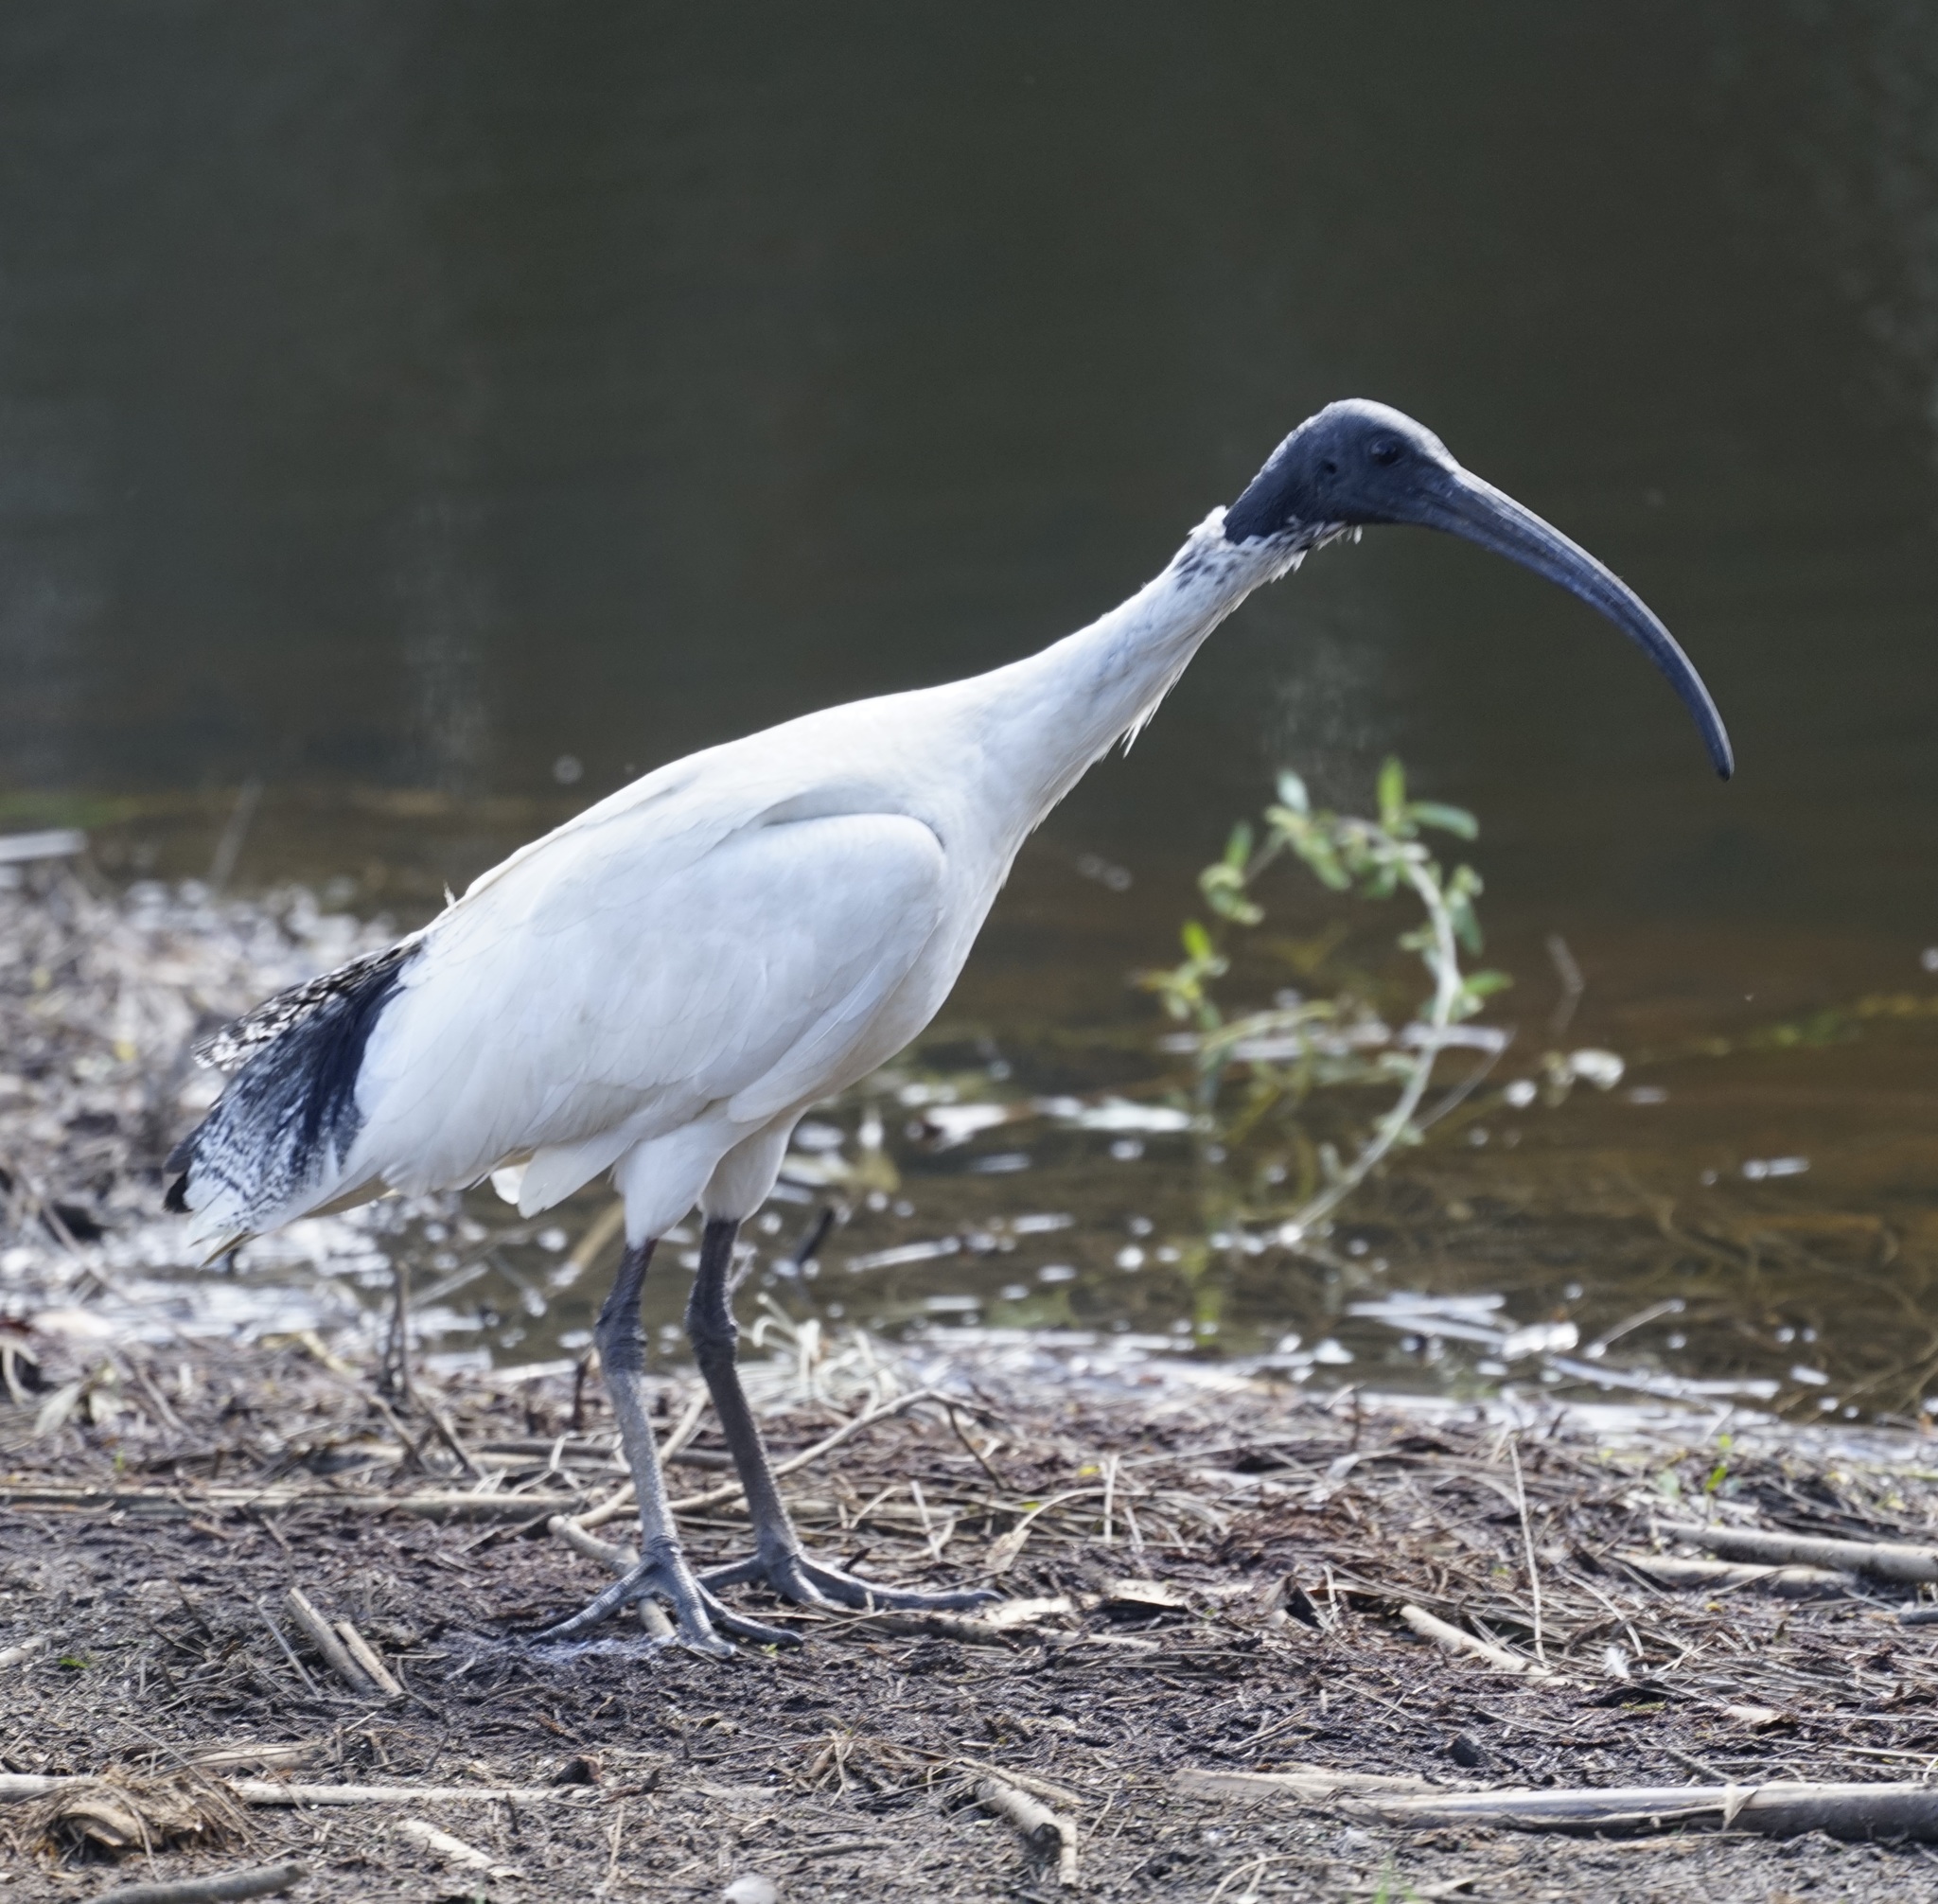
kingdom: Animalia
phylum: Chordata
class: Aves
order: Pelecaniformes
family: Threskiornithidae
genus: Threskiornis
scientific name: Threskiornis molucca
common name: Australian white ibis
